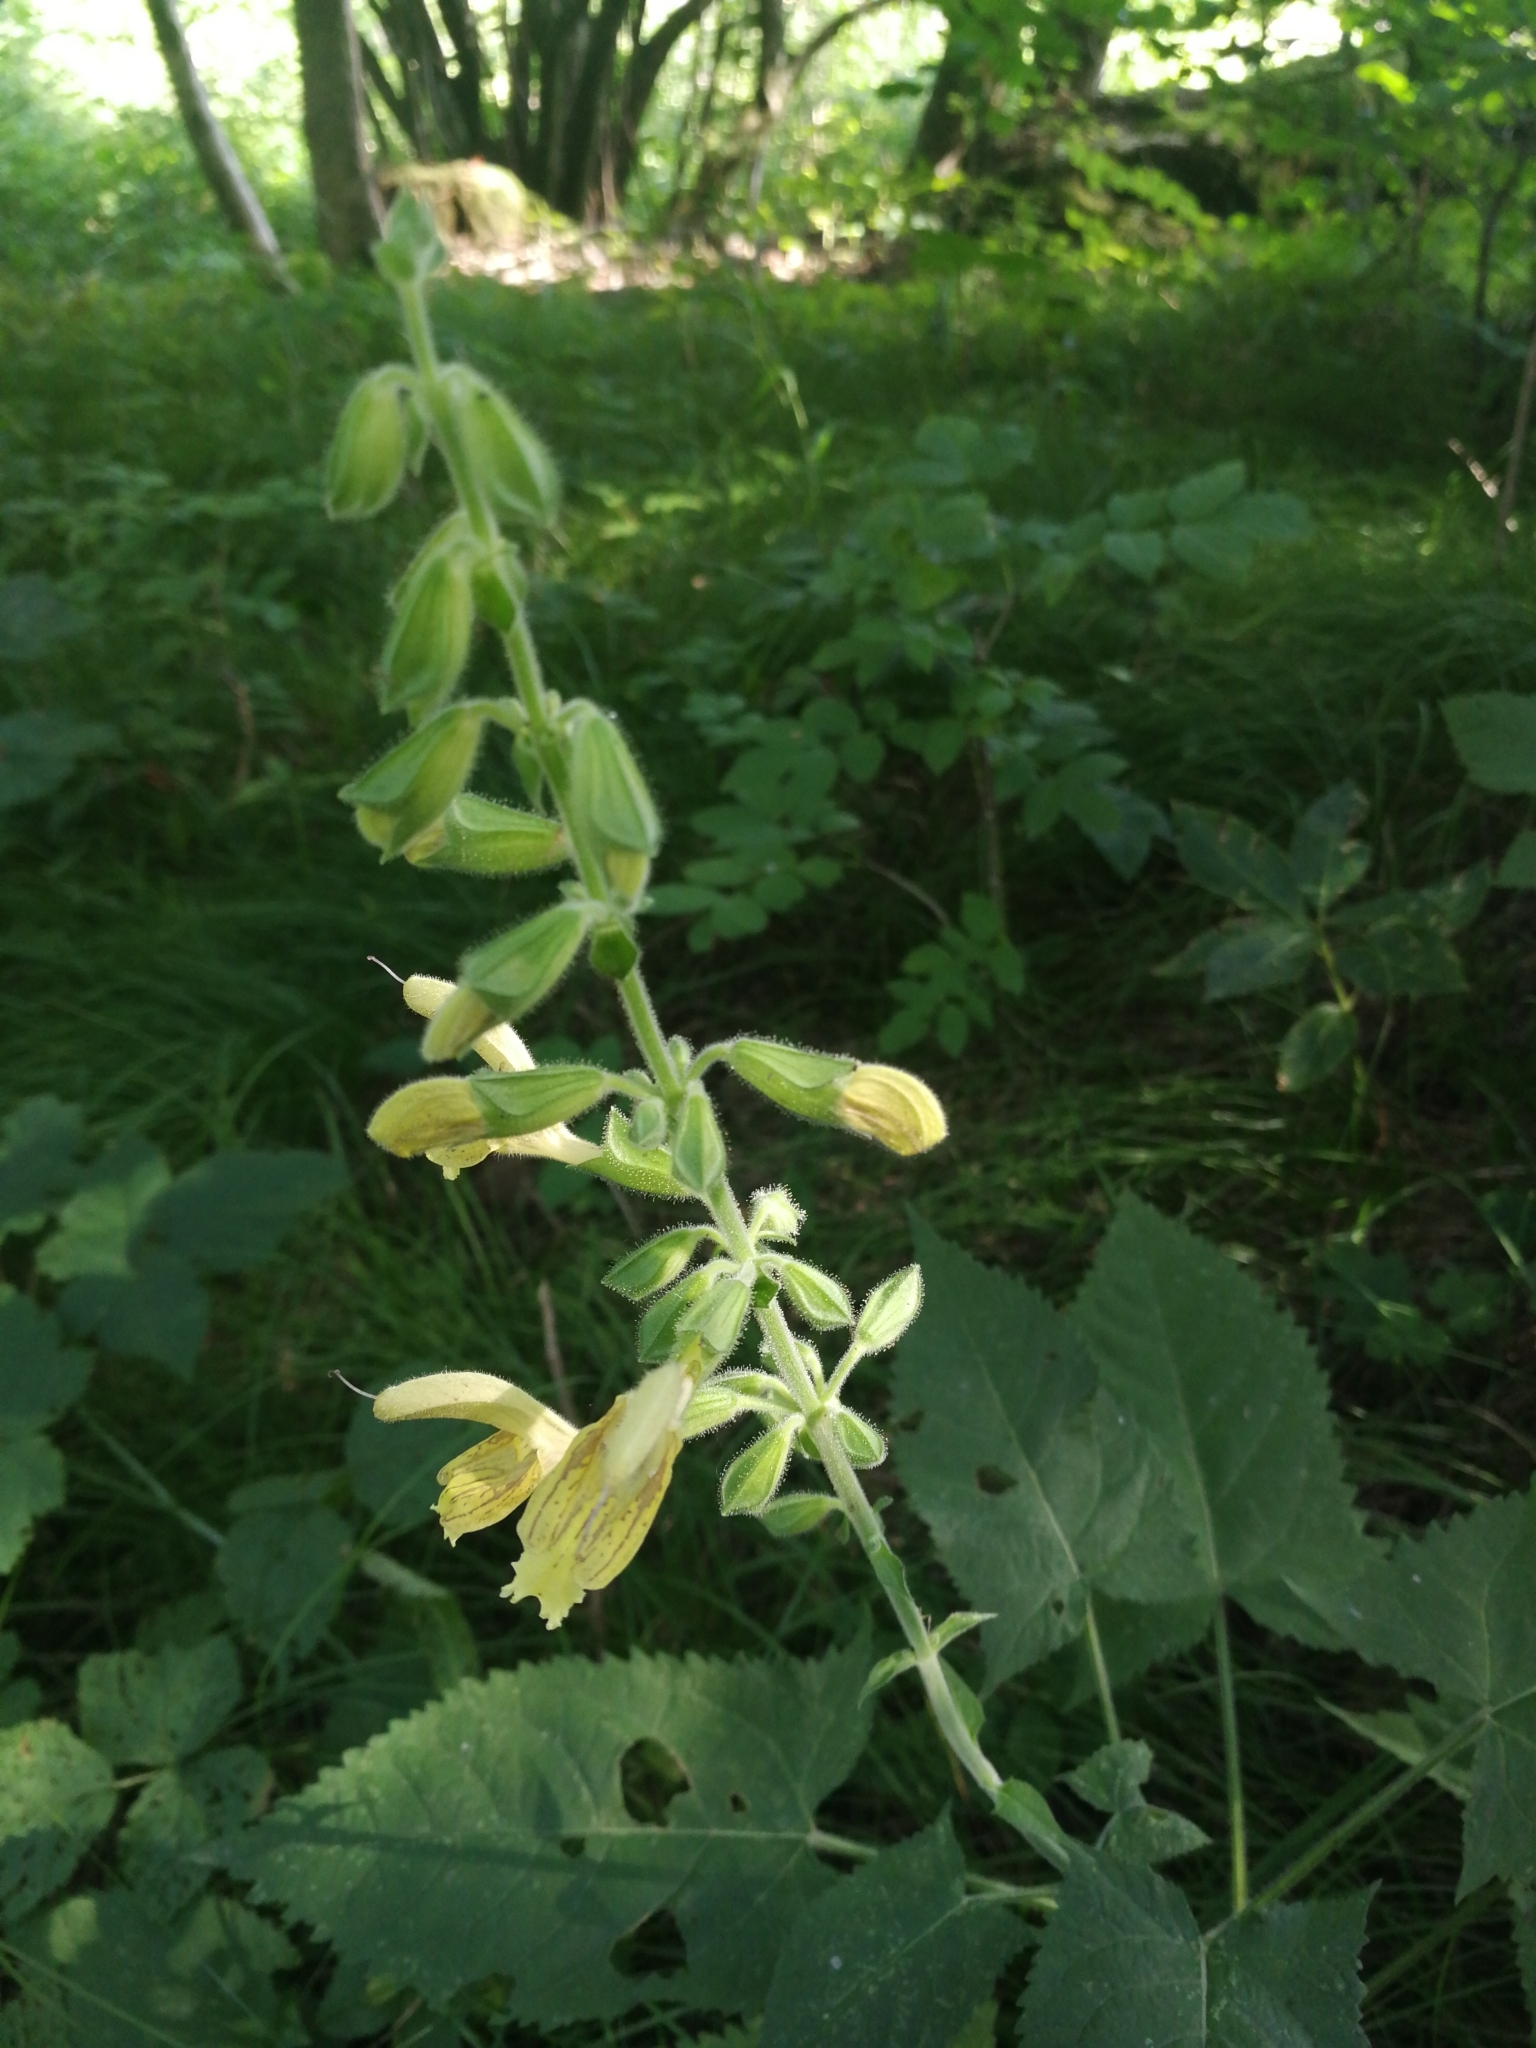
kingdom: Plantae
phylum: Tracheophyta
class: Magnoliopsida
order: Lamiales
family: Lamiaceae
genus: Salvia
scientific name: Salvia glutinosa
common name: Sticky clary
